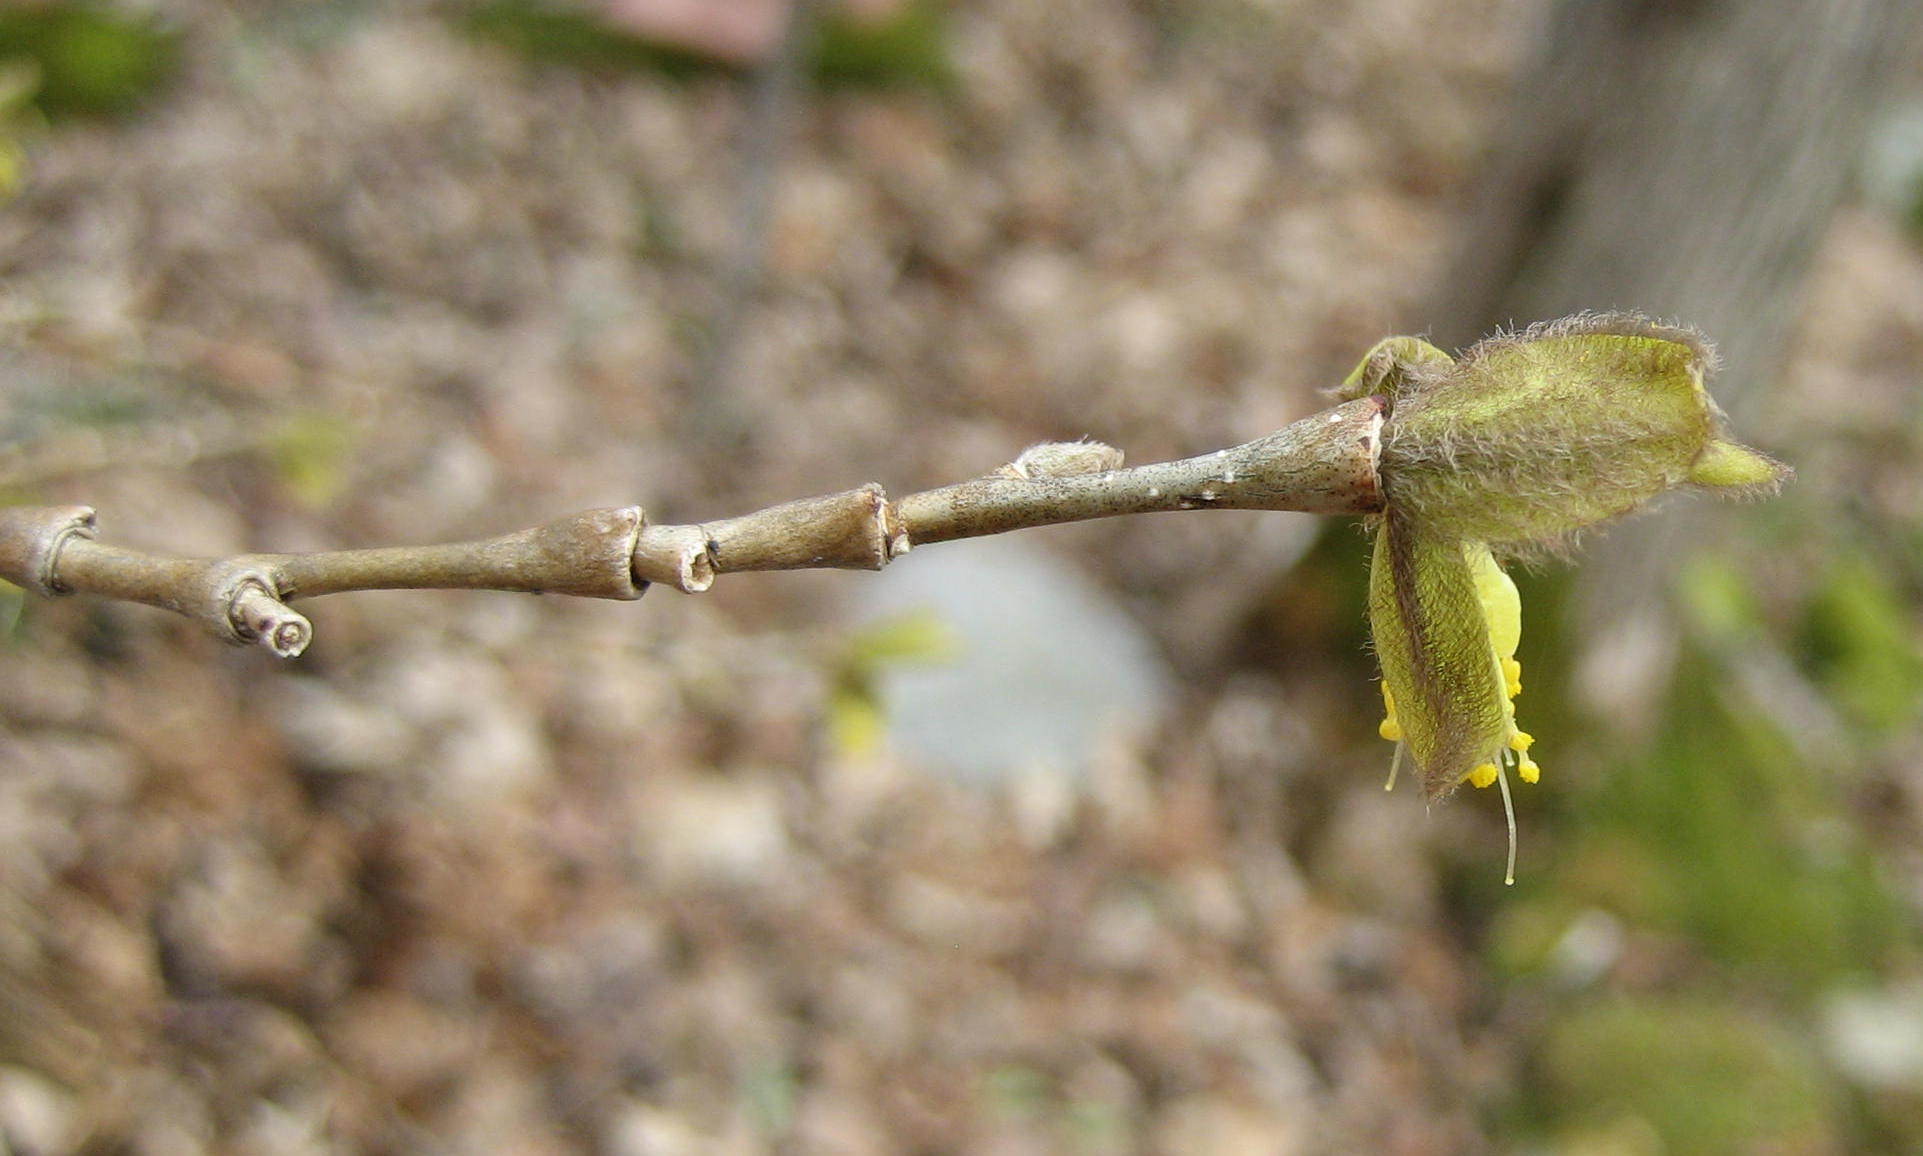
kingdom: Plantae
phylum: Tracheophyta
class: Magnoliopsida
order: Malvales
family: Thymelaeaceae
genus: Dirca
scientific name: Dirca palustris
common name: Leatherwood
